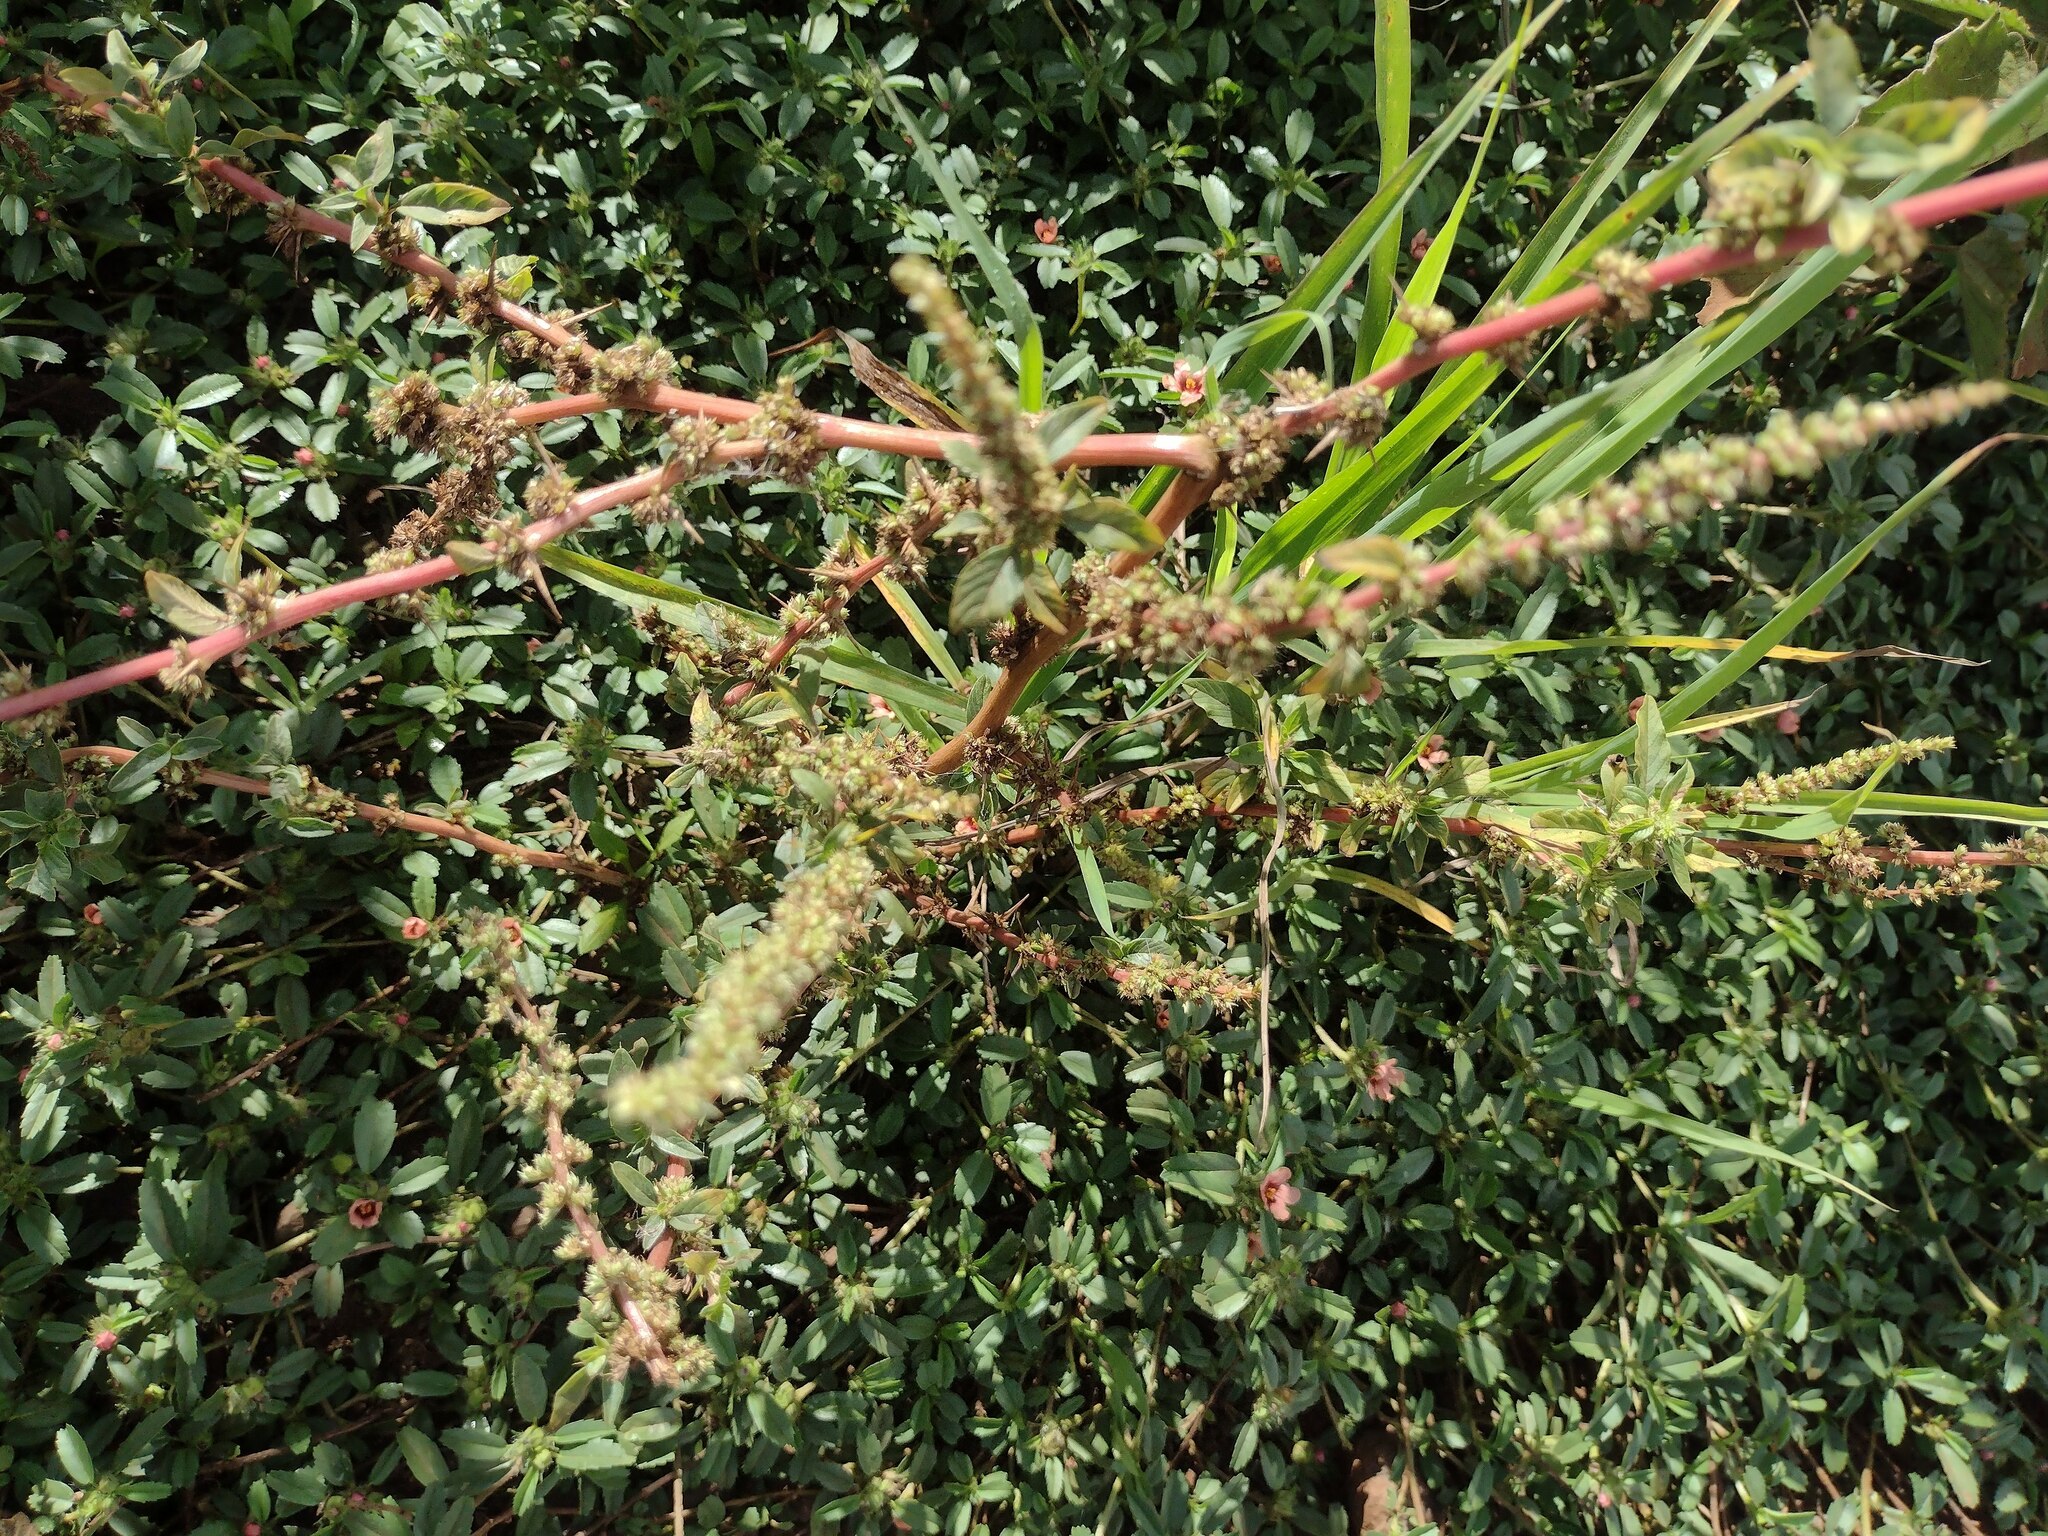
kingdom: Plantae
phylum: Tracheophyta
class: Magnoliopsida
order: Caryophyllales
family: Amaranthaceae
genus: Amaranthus
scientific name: Amaranthus spinosus
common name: Spiny amaranth
